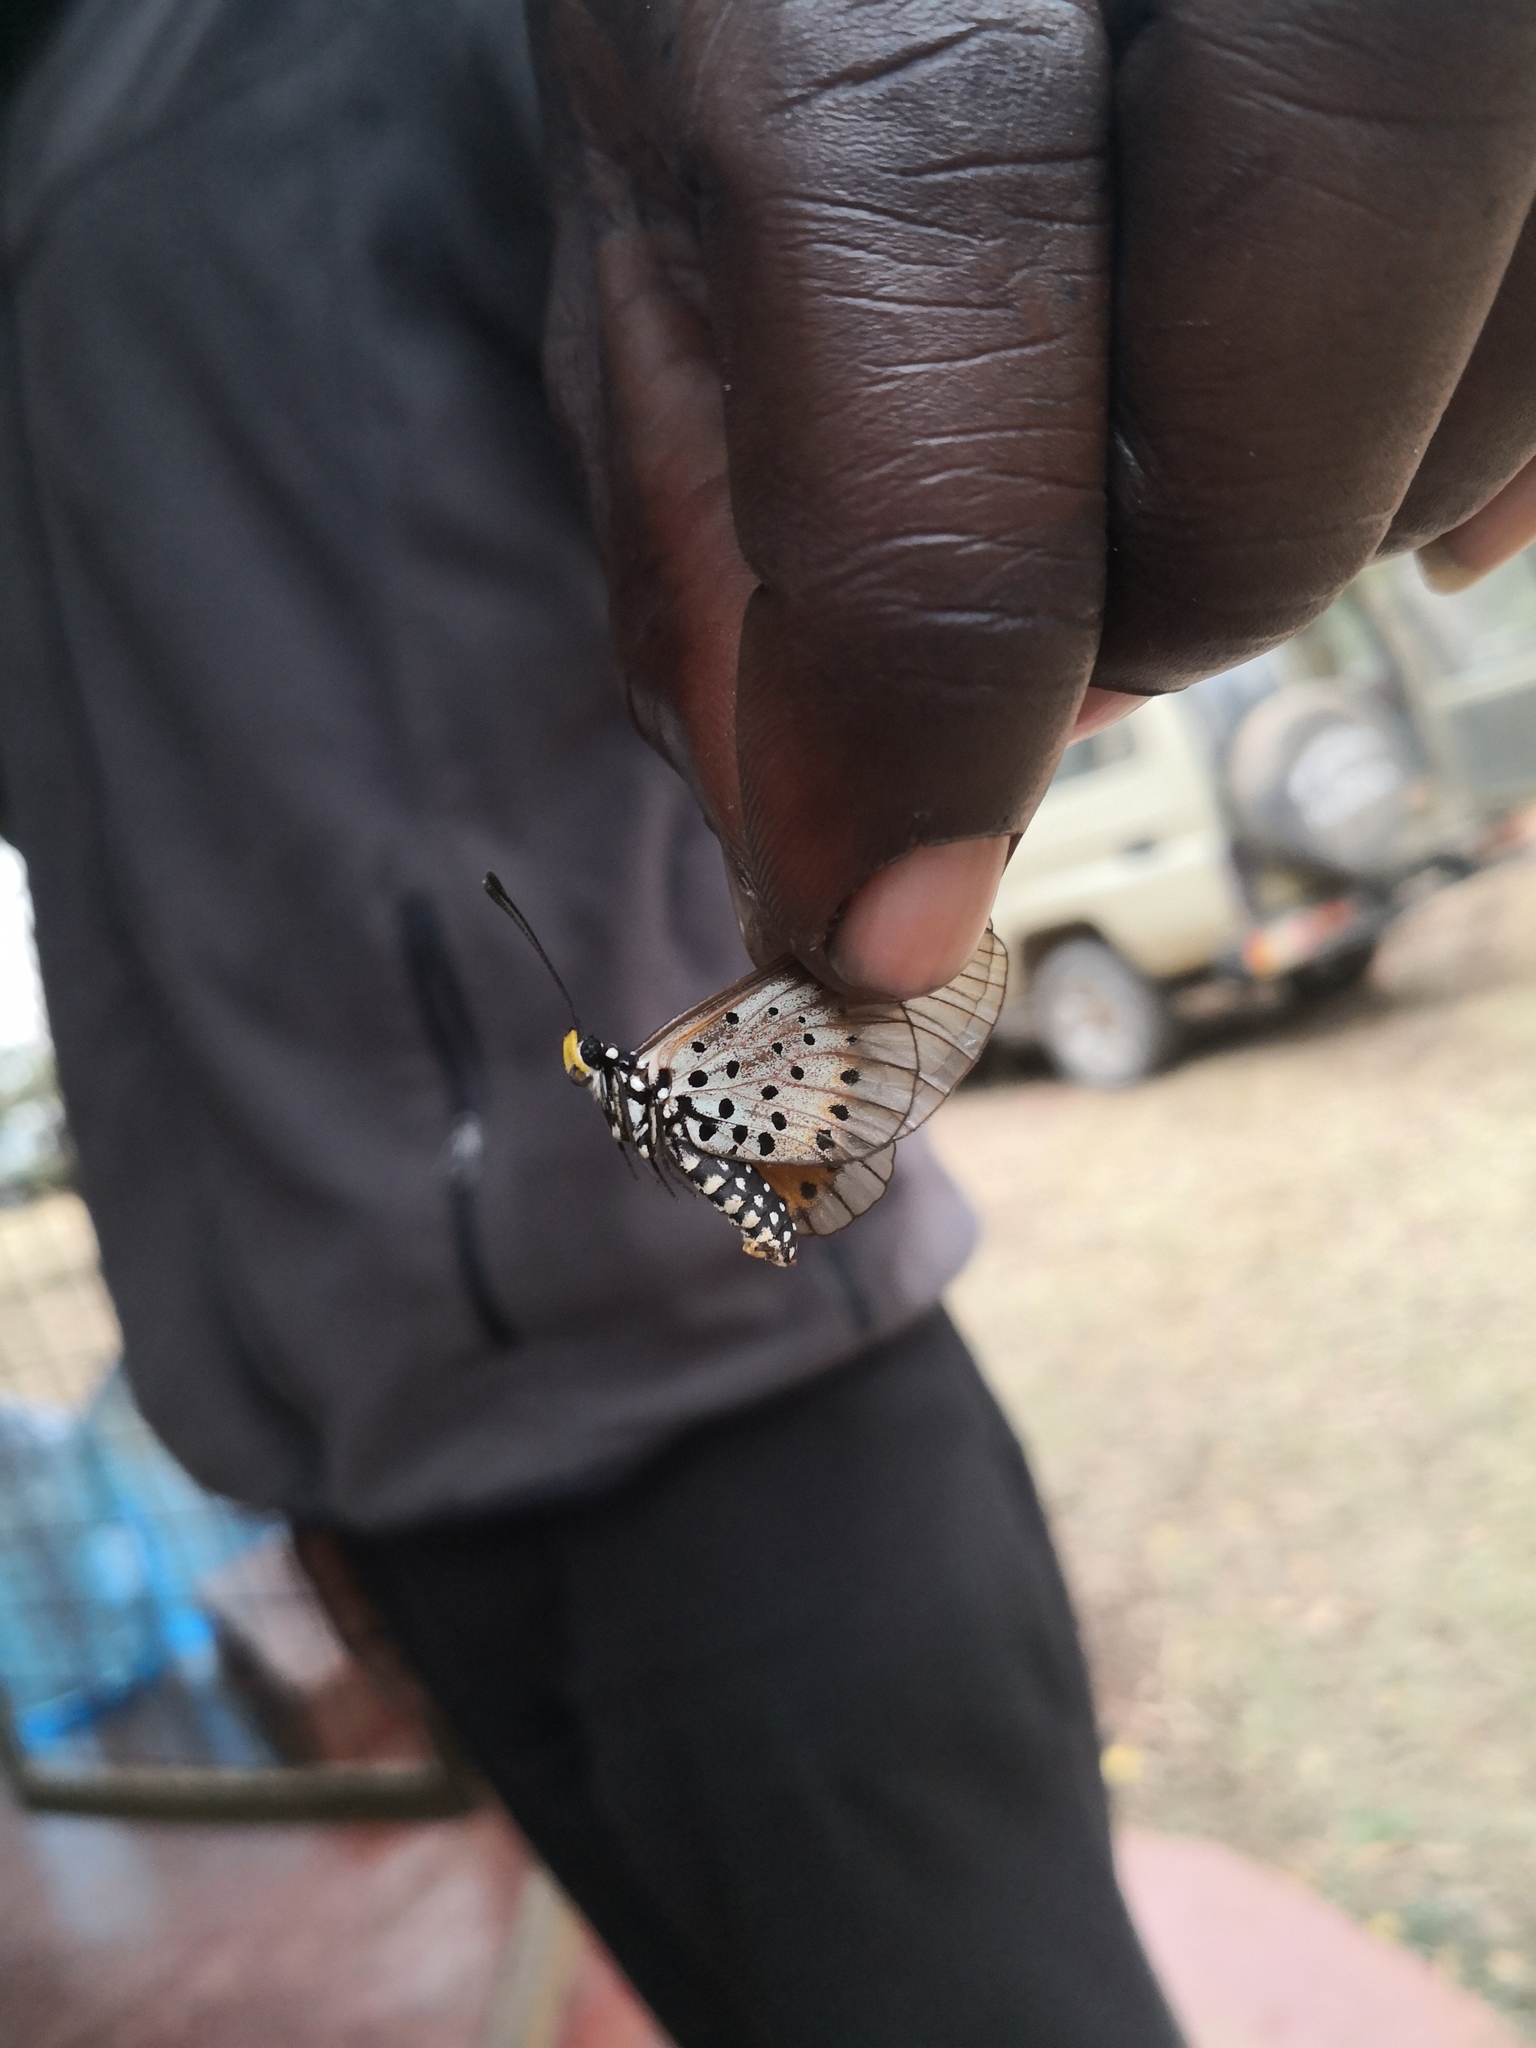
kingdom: Animalia
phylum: Arthropoda
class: Insecta
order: Lepidoptera
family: Nymphalidae
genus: Acraea
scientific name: Acraea quirina
